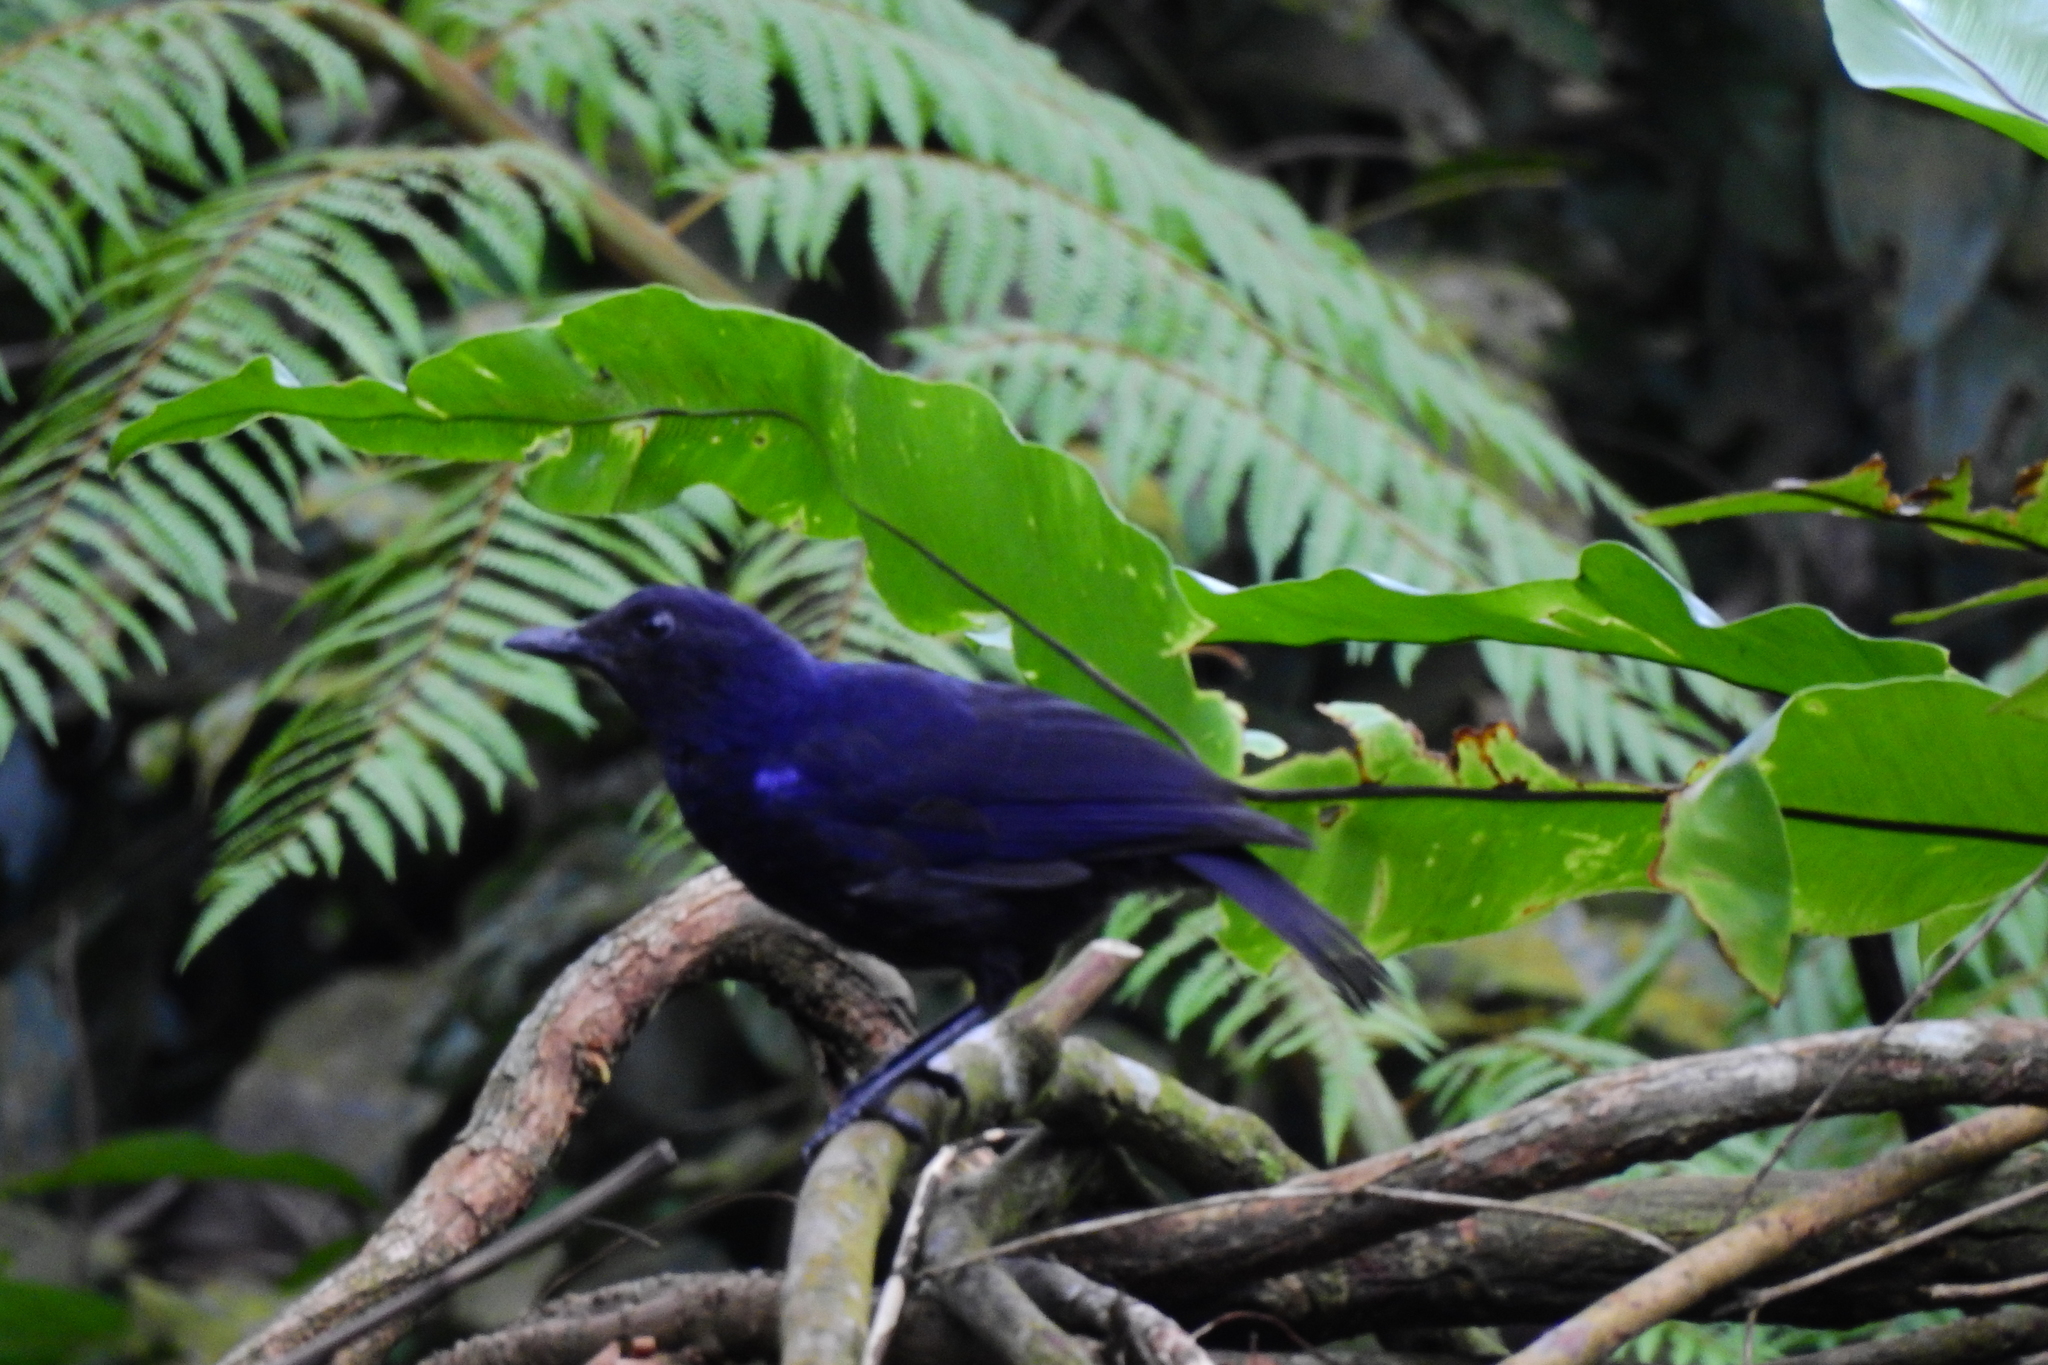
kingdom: Animalia
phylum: Chordata
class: Aves
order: Passeriformes
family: Muscicapidae
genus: Myophonus
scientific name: Myophonus glaucinus
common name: Javan whistling-thrush
